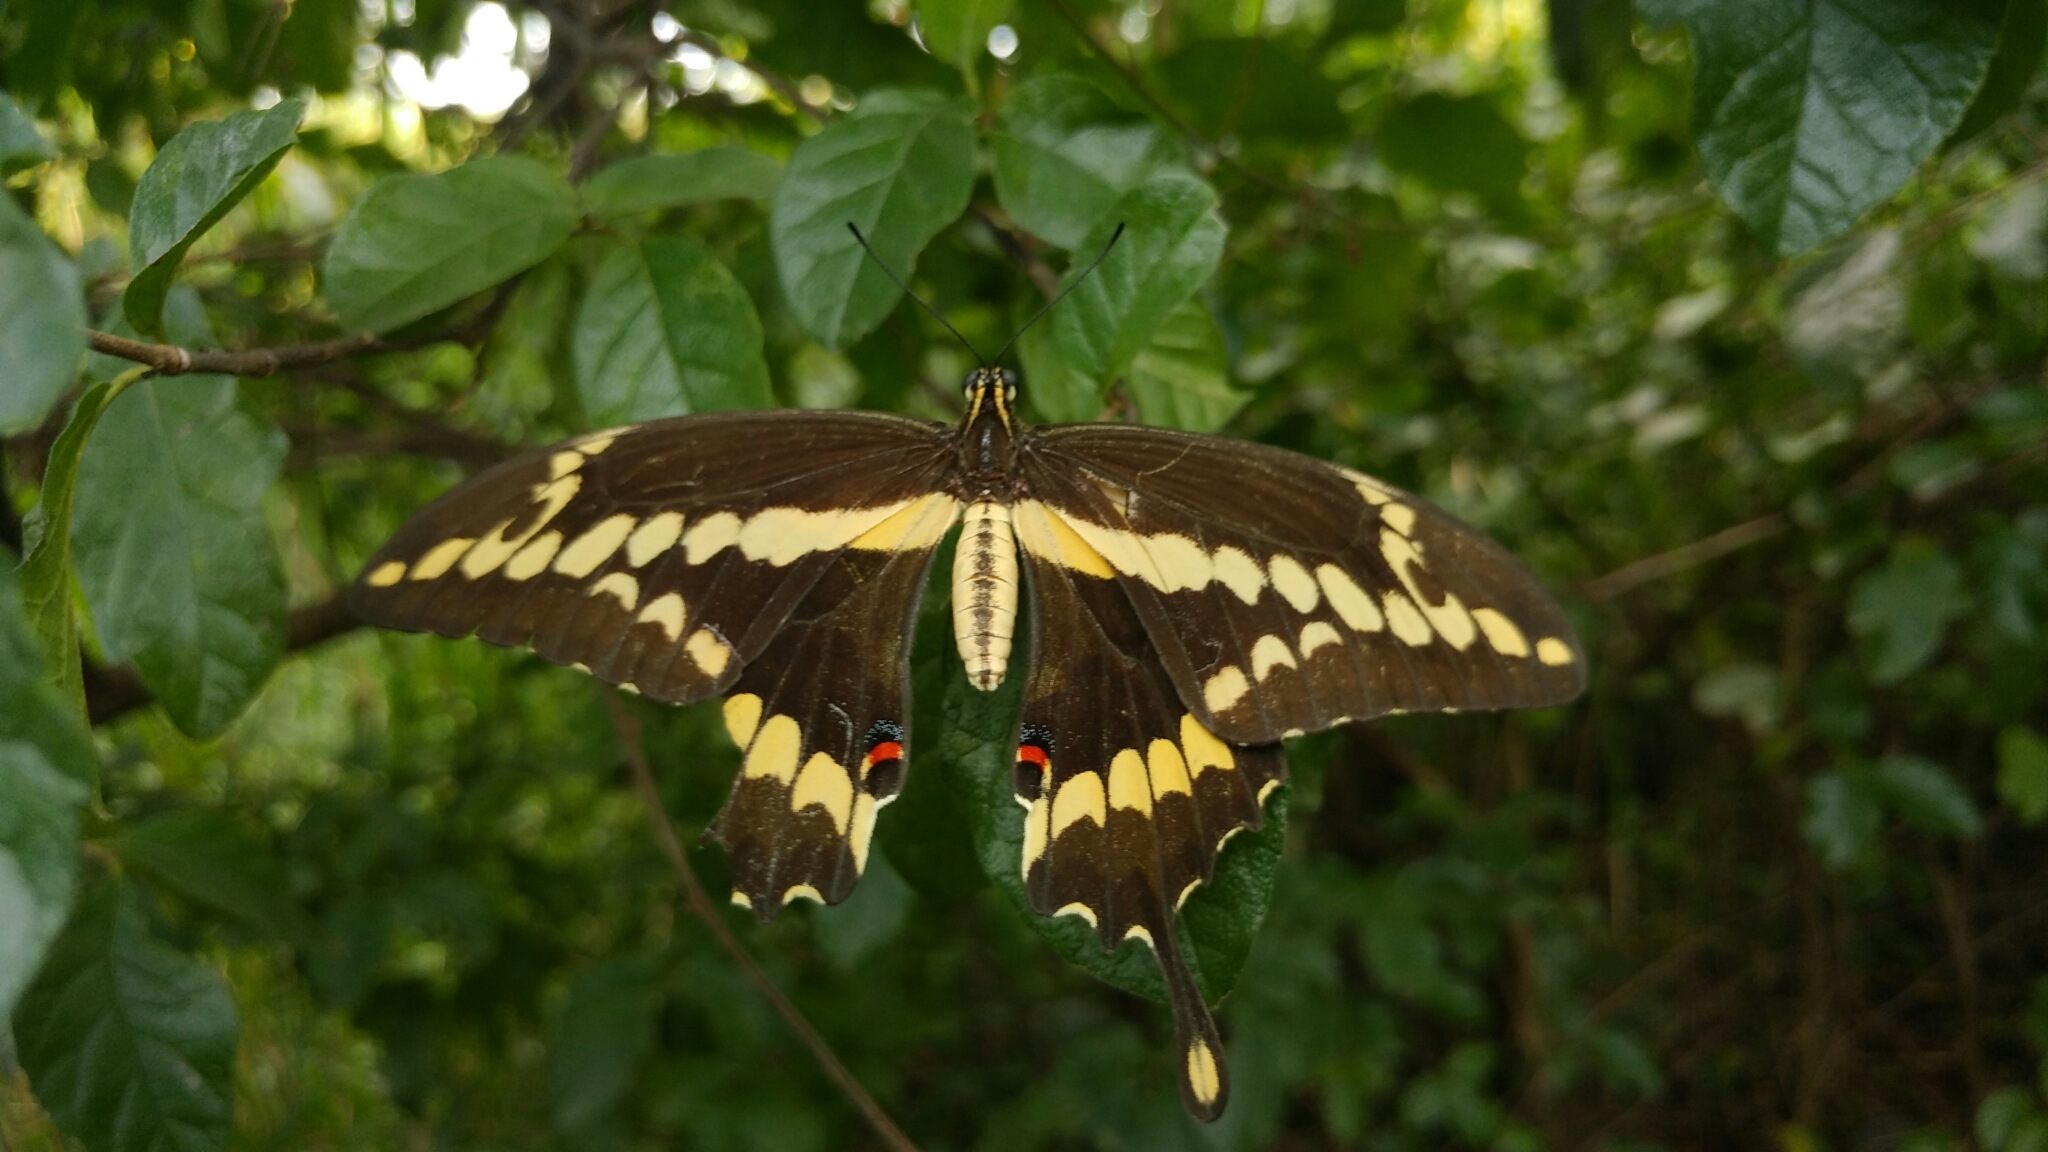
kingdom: Animalia
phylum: Arthropoda
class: Insecta
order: Lepidoptera
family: Papilionidae
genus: Papilio
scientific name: Papilio rumiko
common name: Western giant swallowtail
